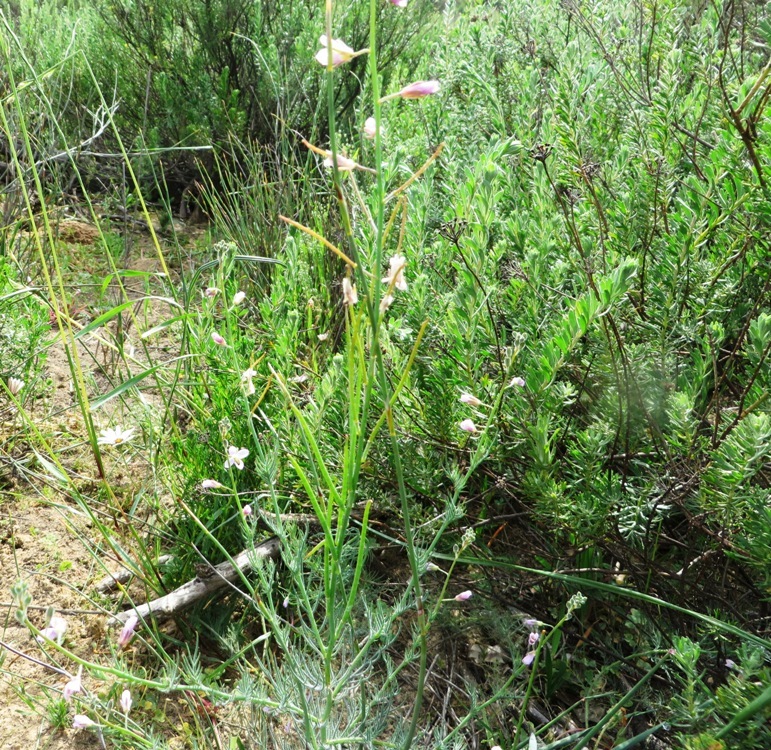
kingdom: Plantae
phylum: Tracheophyta
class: Magnoliopsida
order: Brassicales
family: Brassicaceae
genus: Heliophila
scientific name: Heliophila digitata
